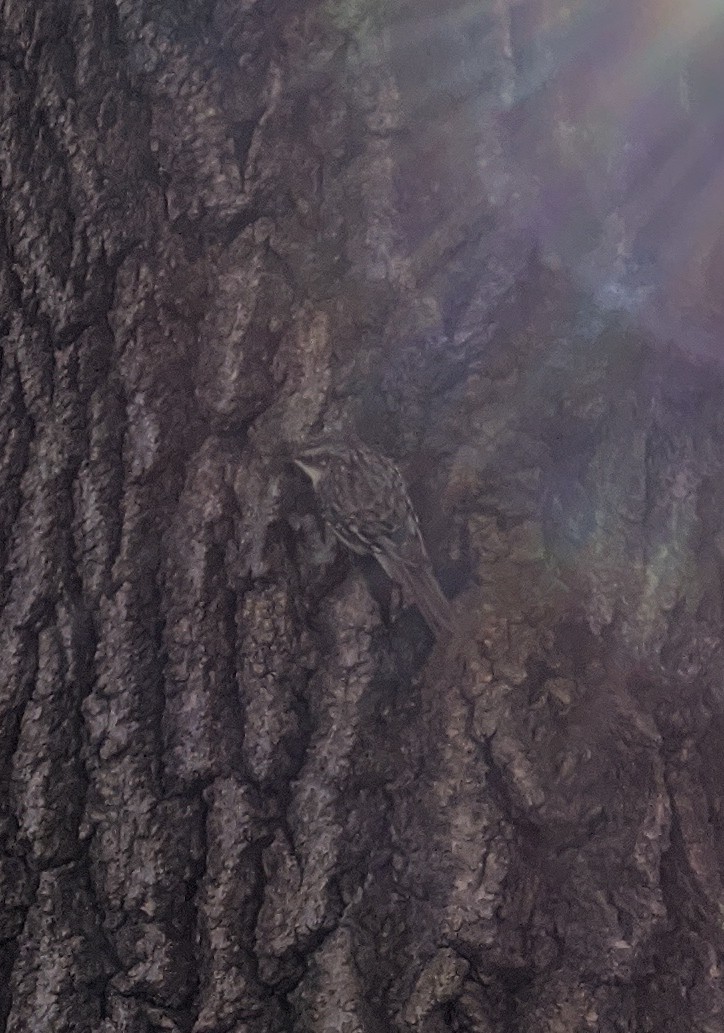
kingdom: Animalia
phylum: Chordata
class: Aves
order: Passeriformes
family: Certhiidae
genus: Certhia
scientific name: Certhia americana
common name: Brown creeper
